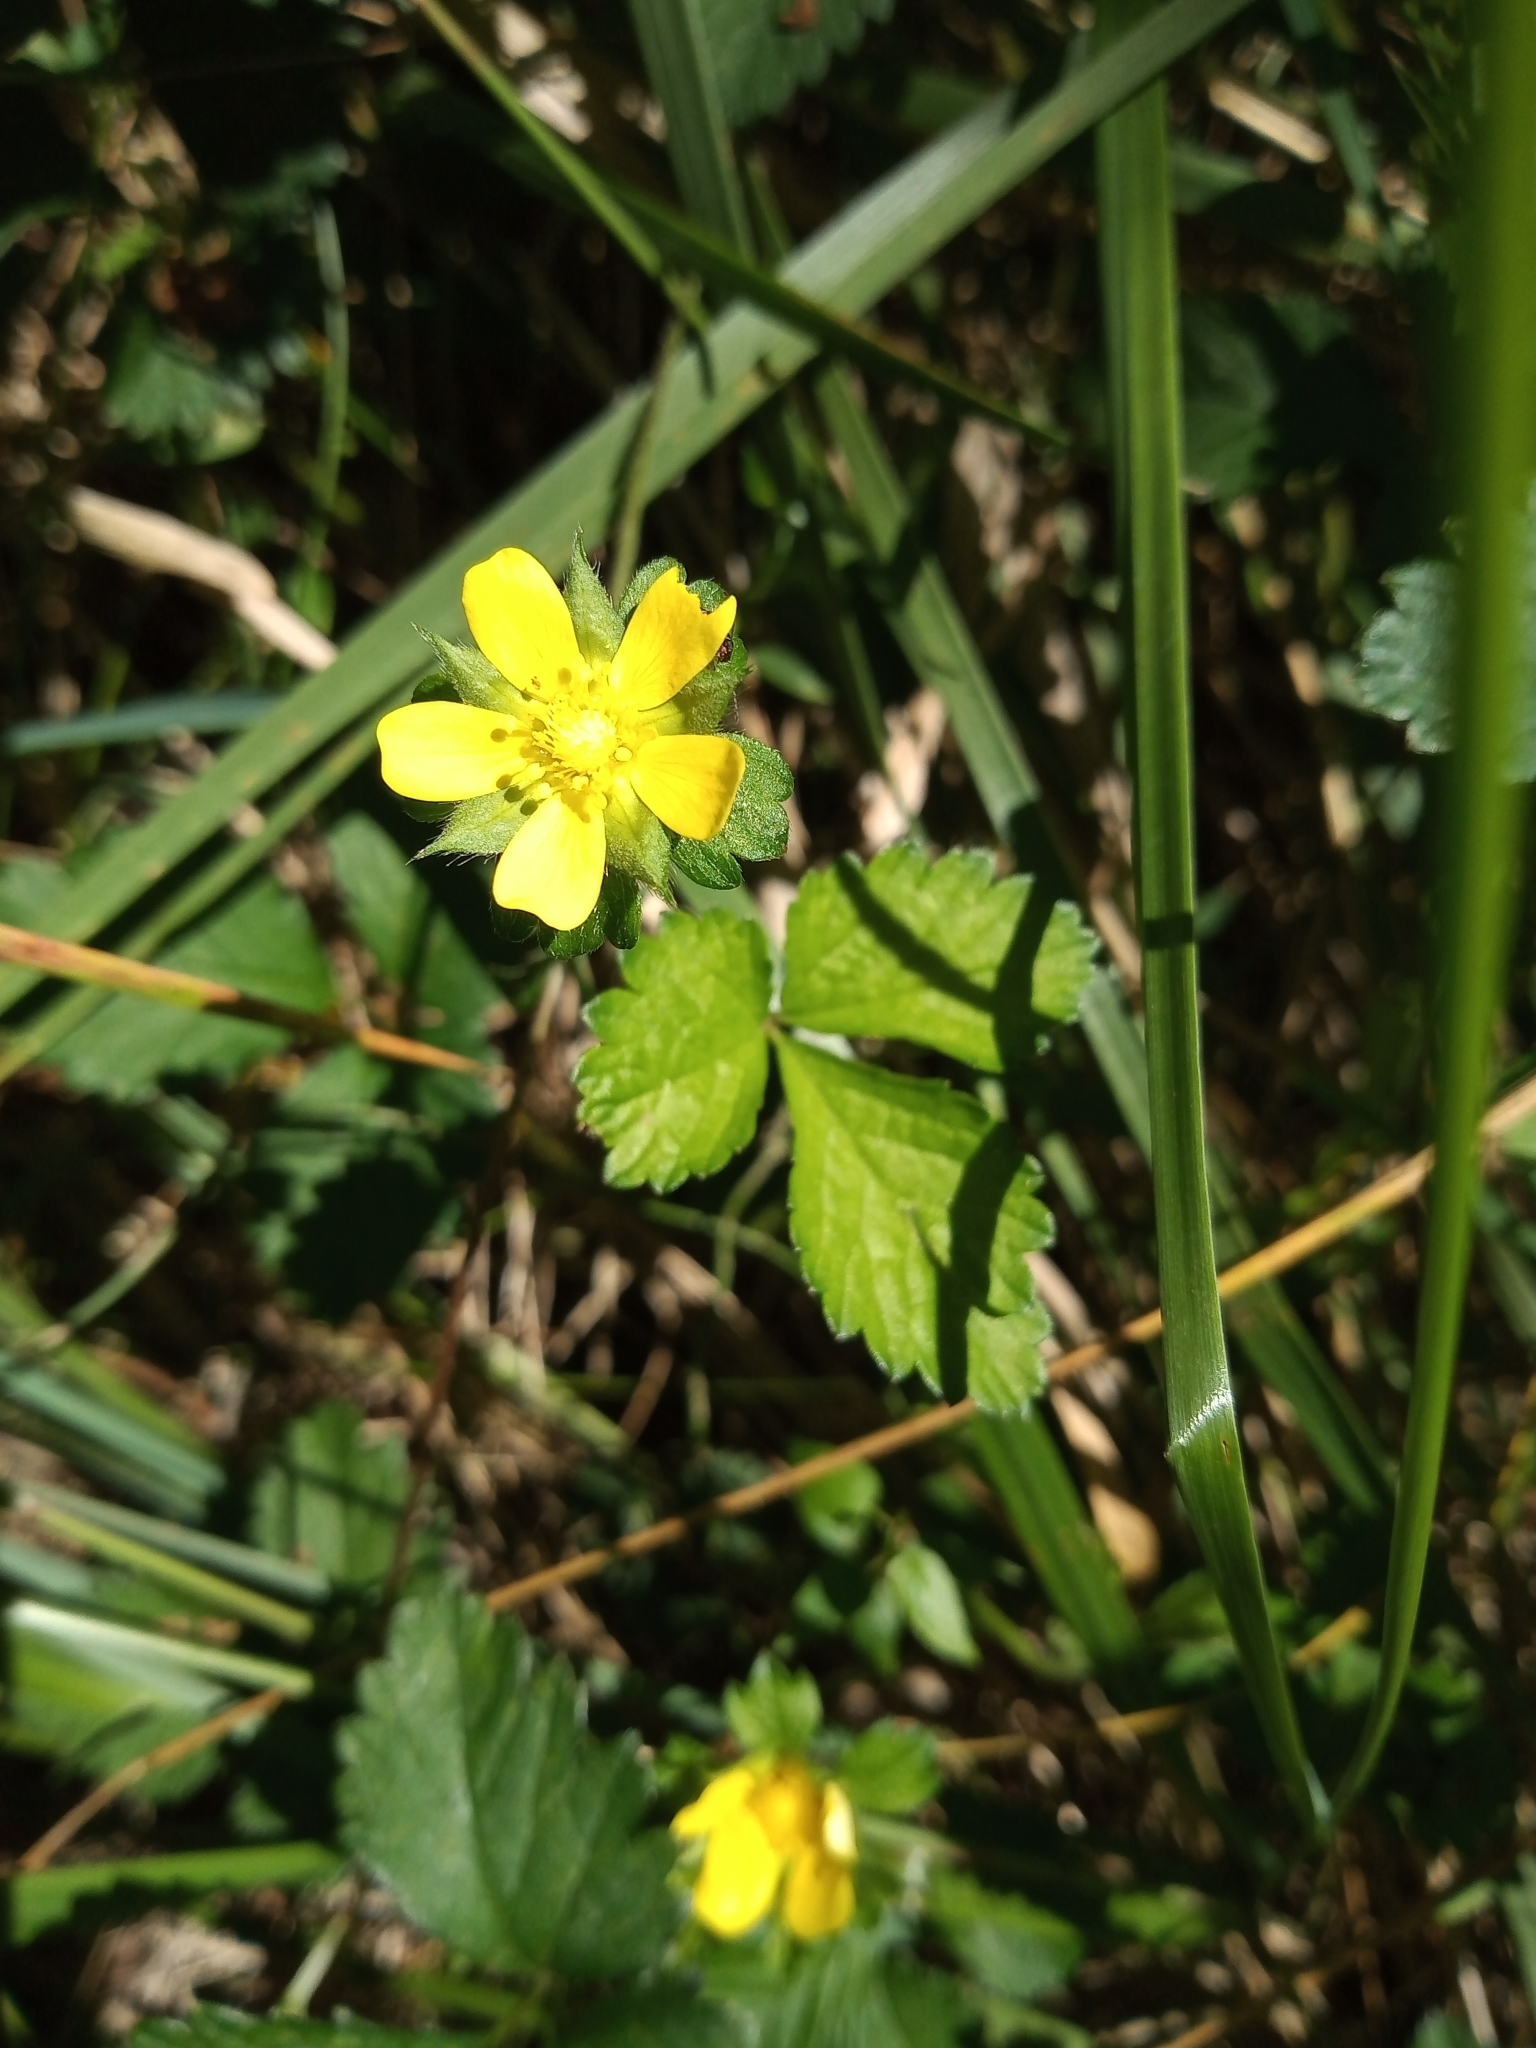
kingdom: Plantae
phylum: Tracheophyta
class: Magnoliopsida
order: Rosales
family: Rosaceae
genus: Potentilla
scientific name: Potentilla indica
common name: Yellow-flowered strawberry
